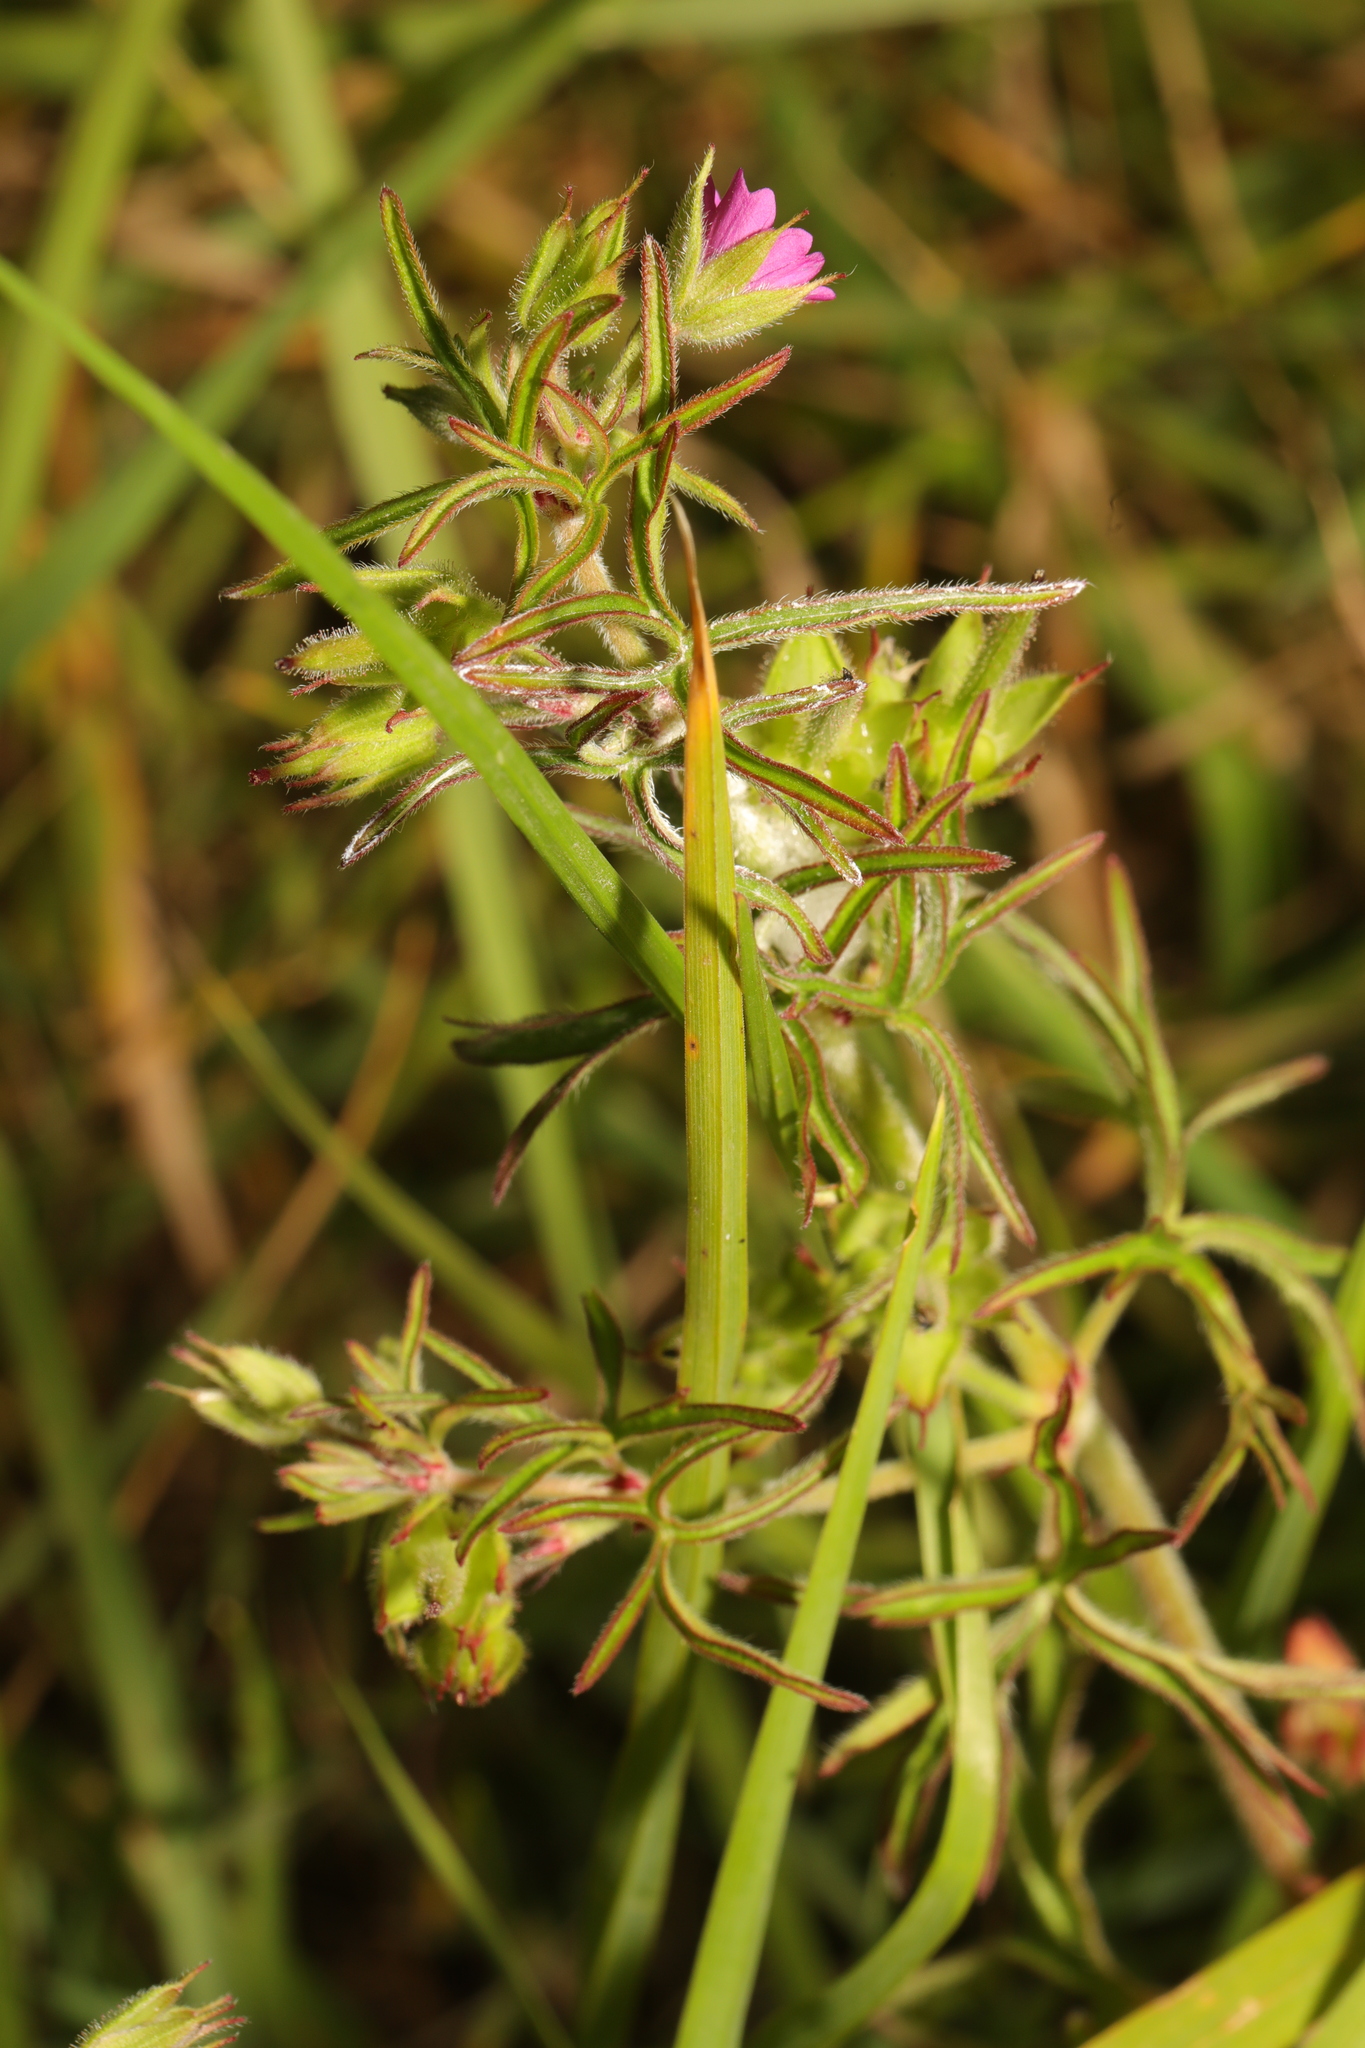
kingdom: Plantae
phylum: Tracheophyta
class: Magnoliopsida
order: Geraniales
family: Geraniaceae
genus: Geranium
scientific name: Geranium dissectum
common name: Cut-leaved crane's-bill
